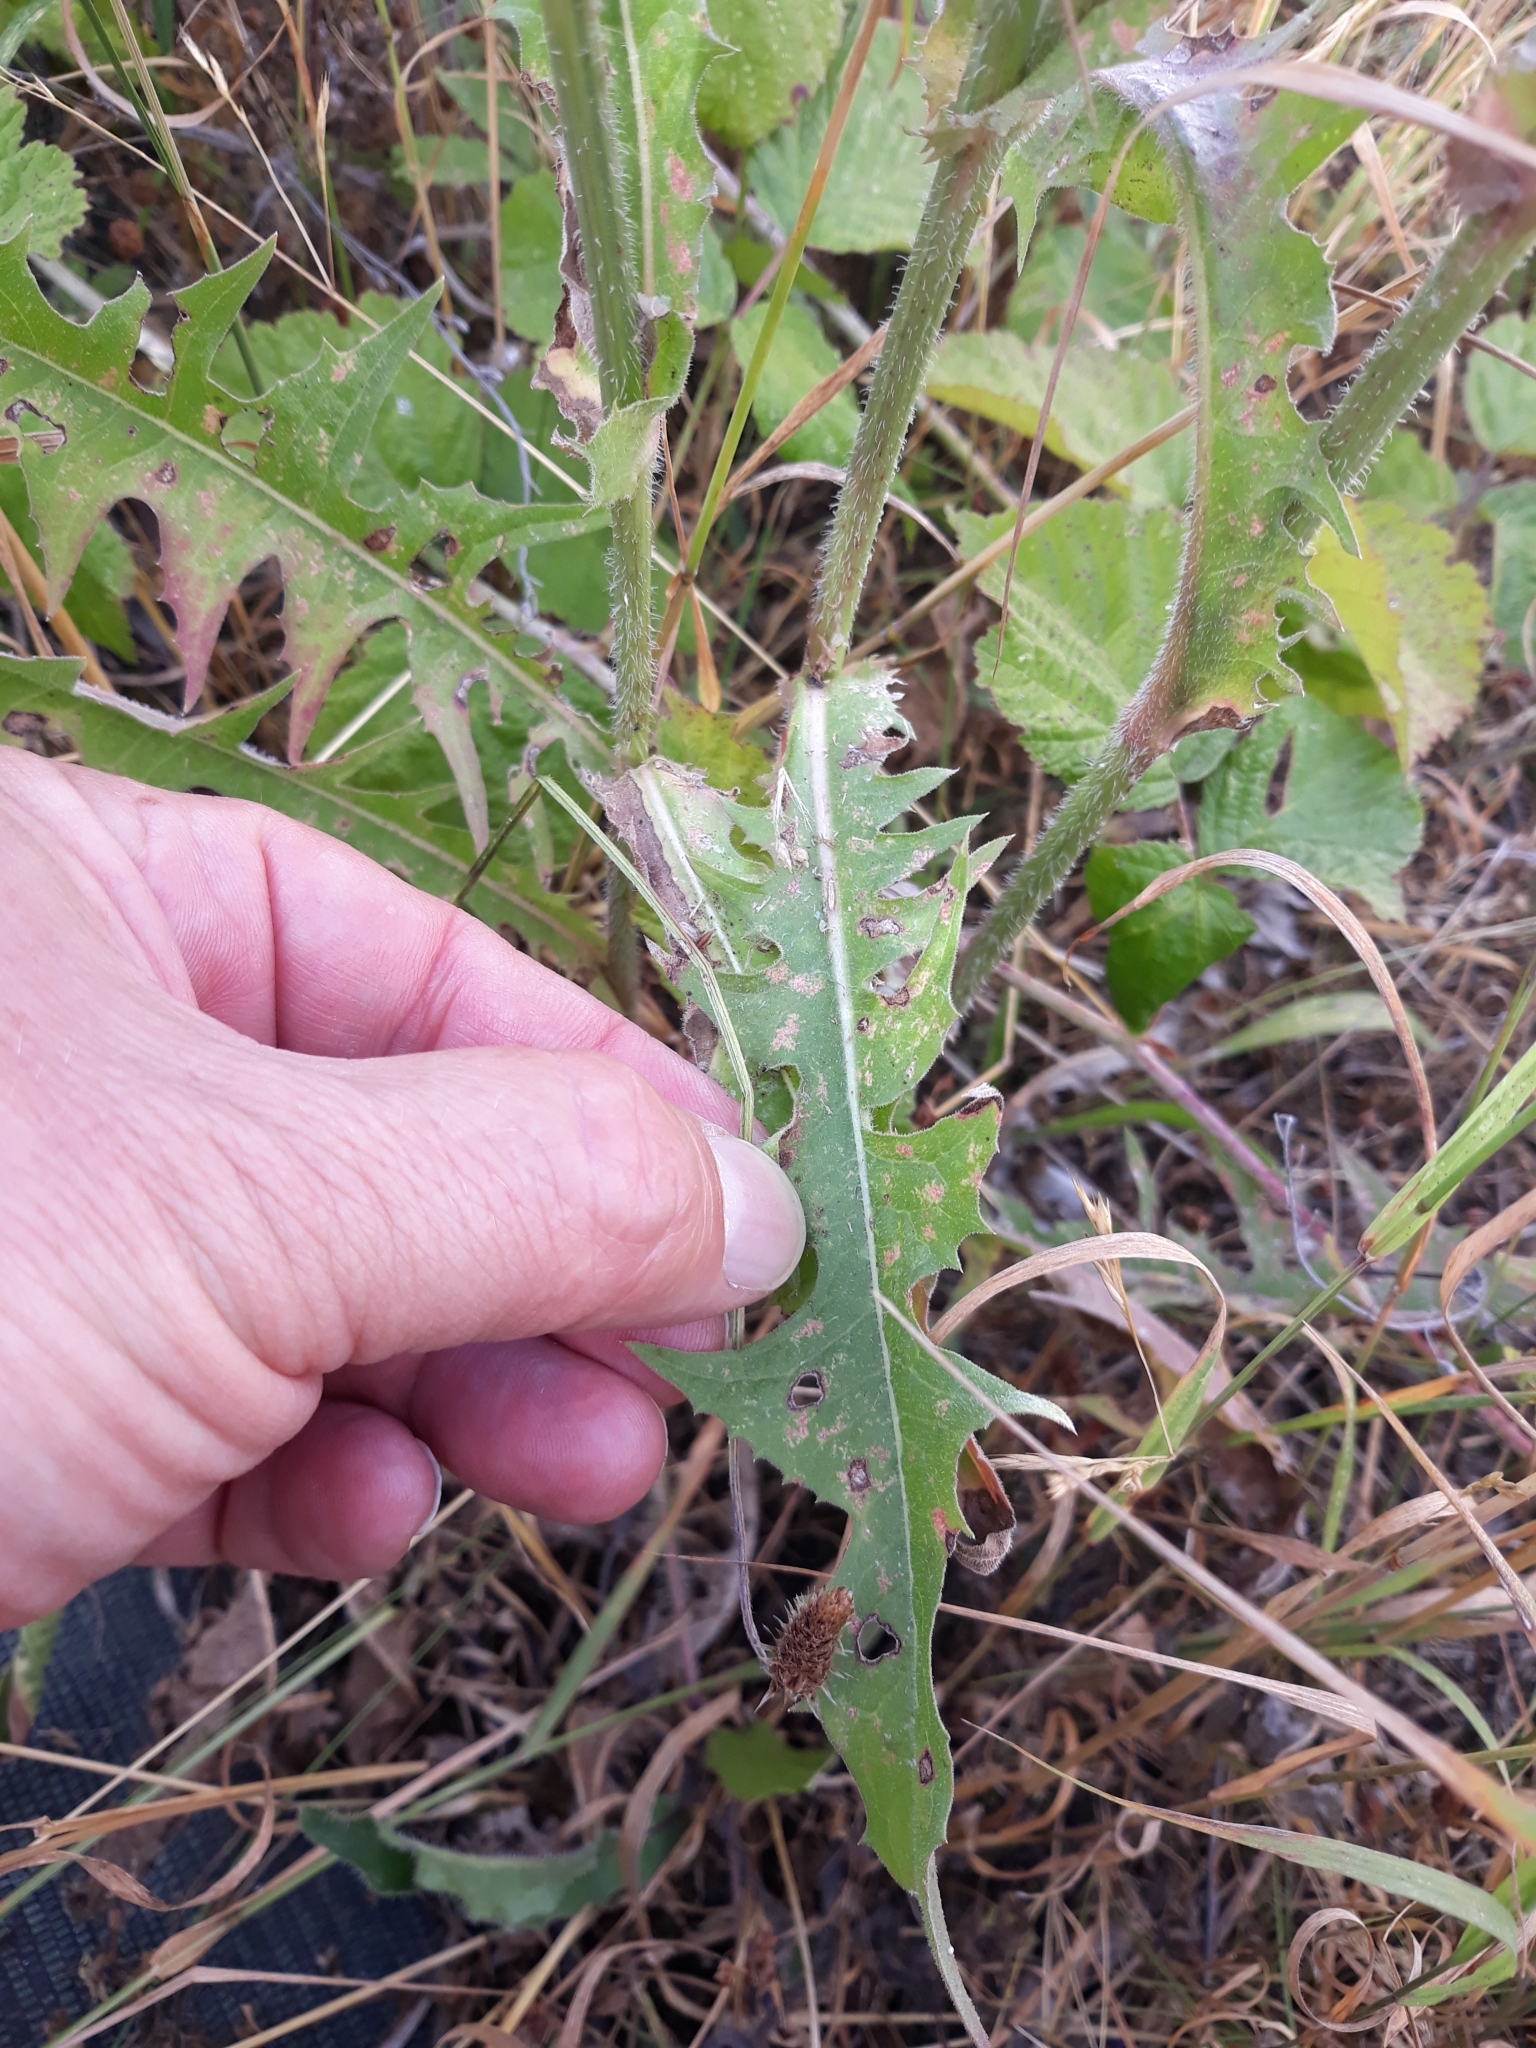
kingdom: Plantae
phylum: Tracheophyta
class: Magnoliopsida
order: Asterales
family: Asteraceae
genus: Cichorium
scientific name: Cichorium intybus
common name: Chicory
